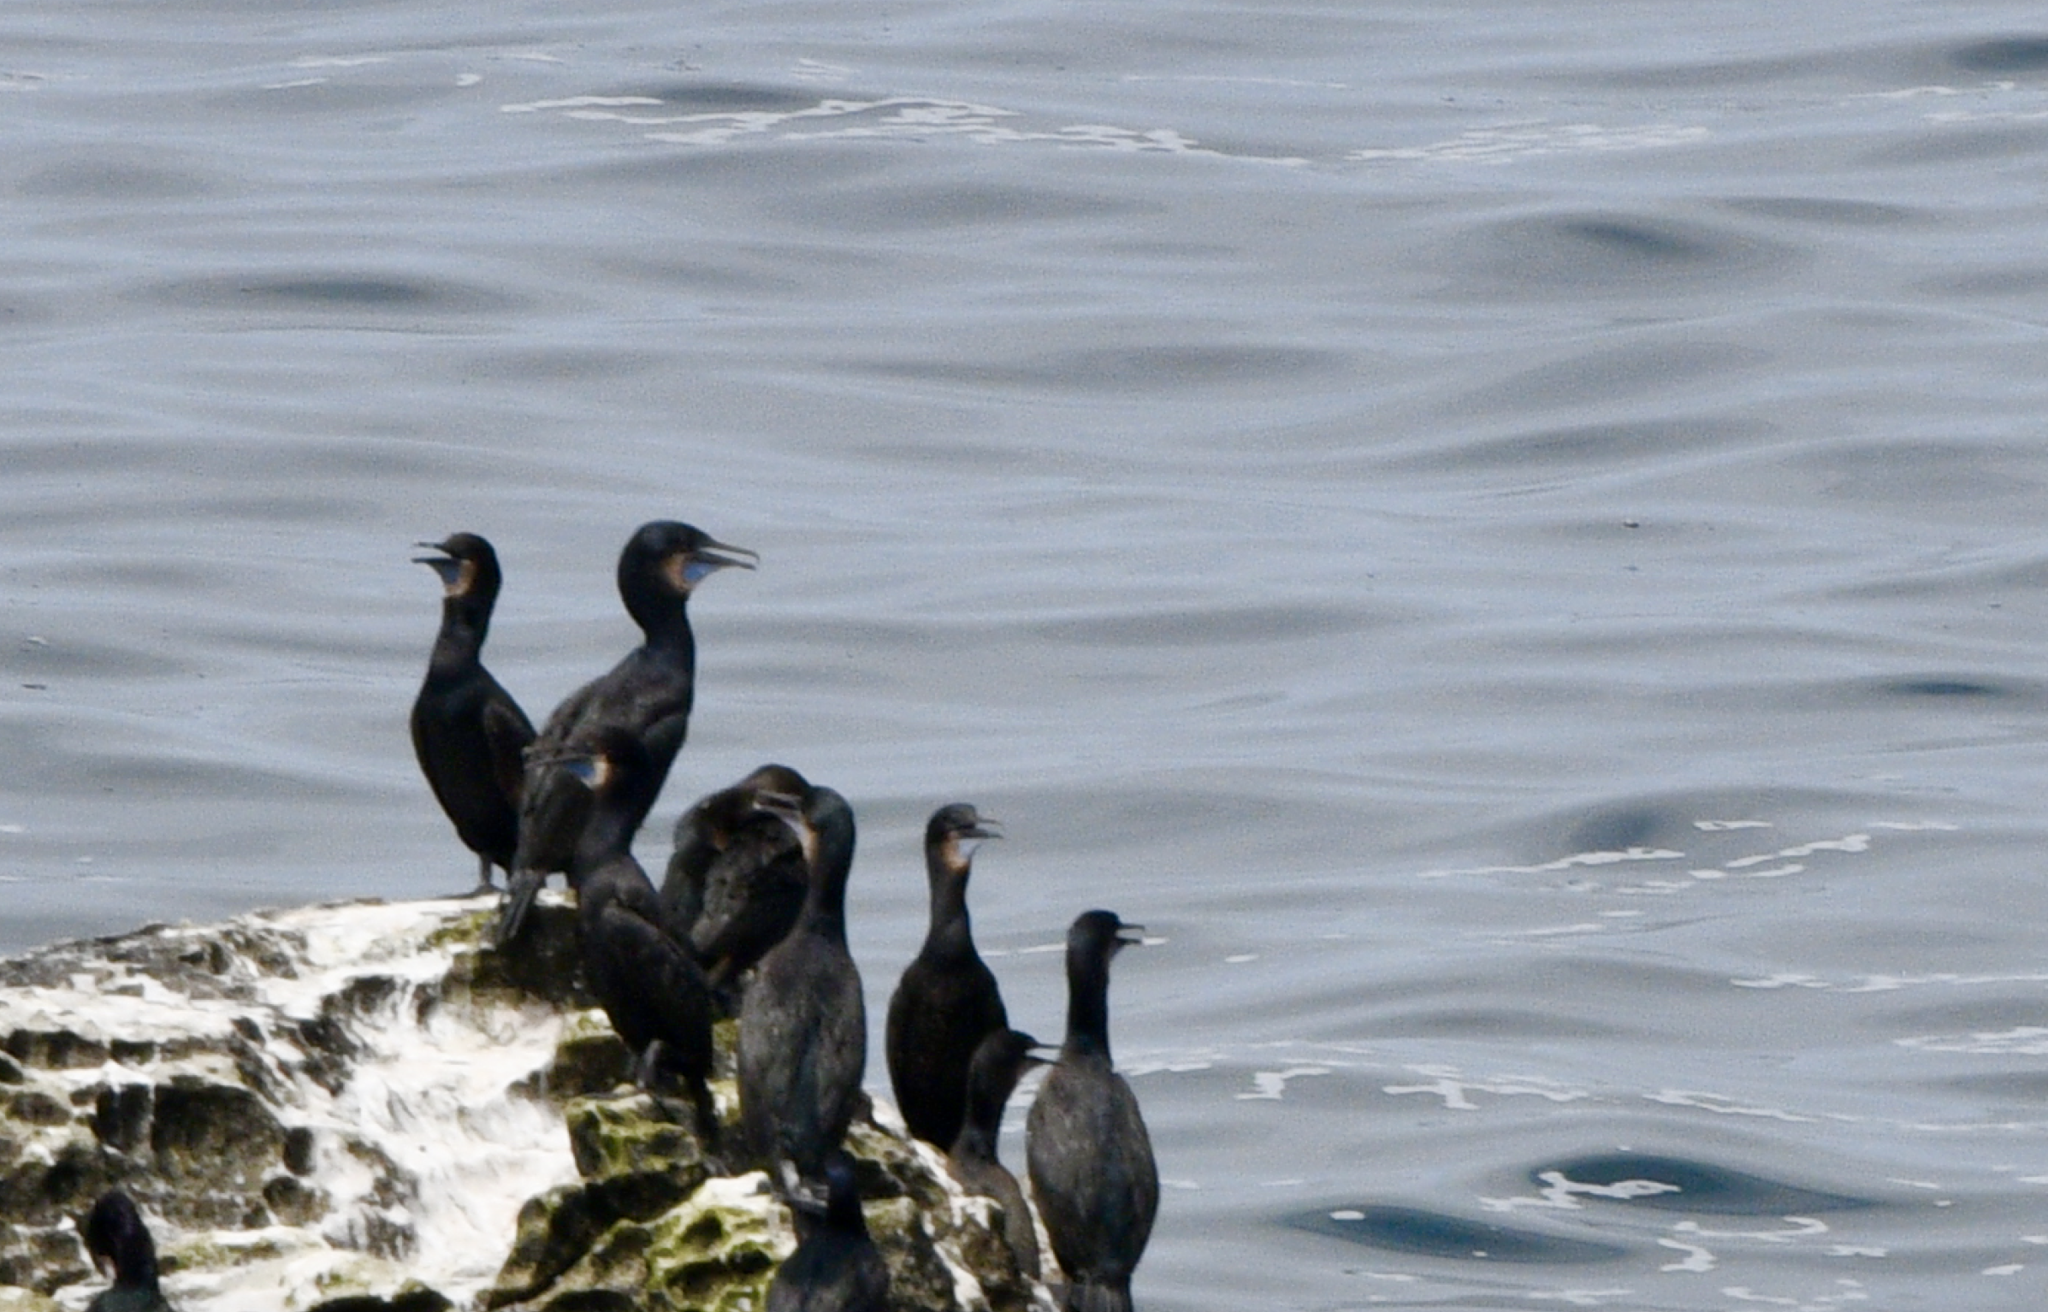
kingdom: Animalia
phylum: Chordata
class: Aves
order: Suliformes
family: Phalacrocoracidae
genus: Urile
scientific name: Urile penicillatus
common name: Brandt's cormorant
